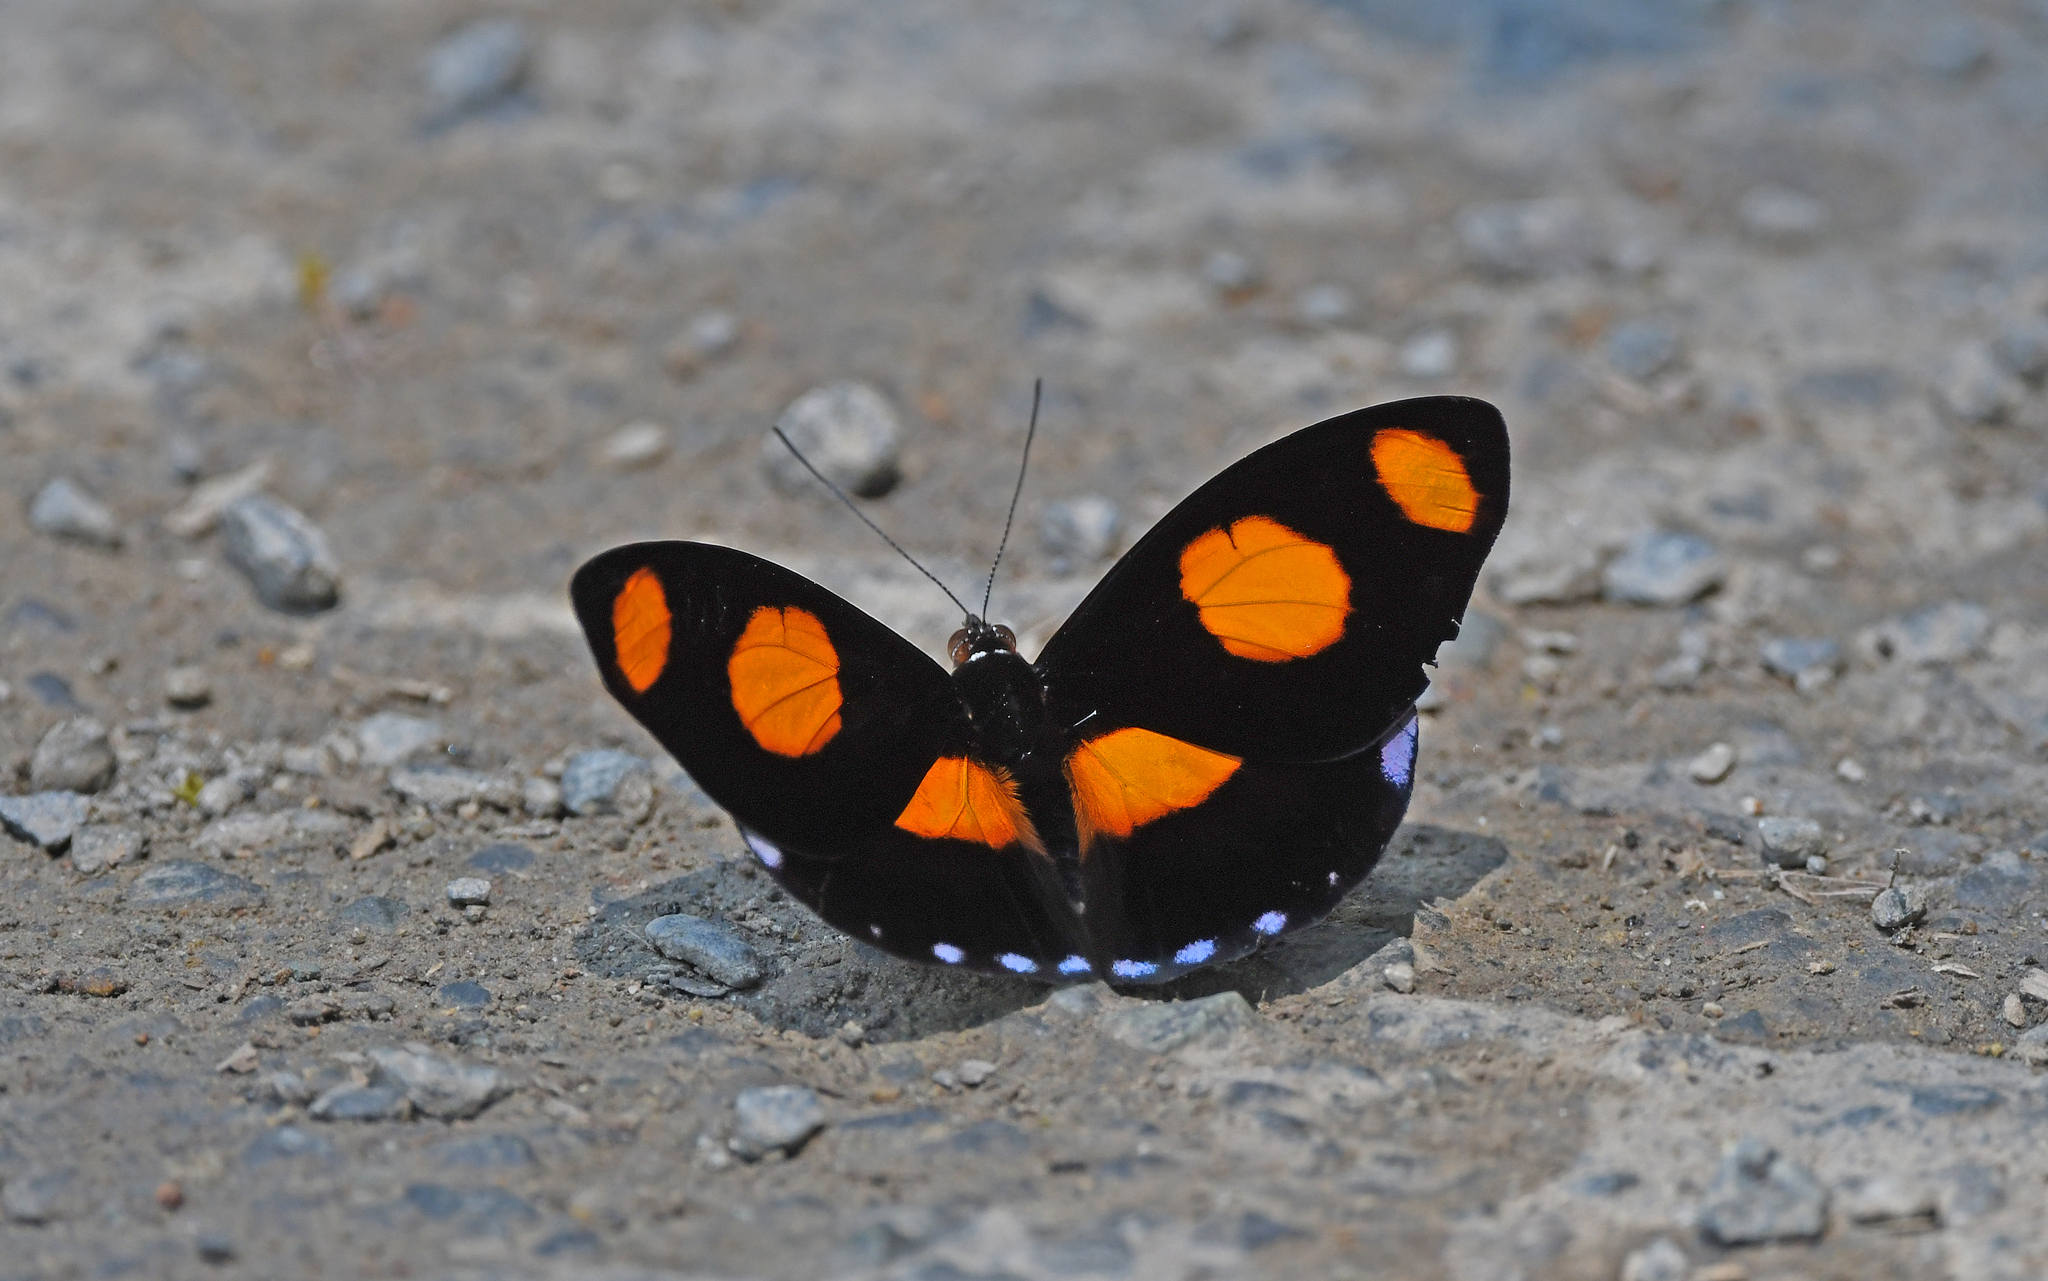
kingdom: Animalia
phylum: Arthropoda
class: Insecta
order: Lepidoptera
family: Nymphalidae
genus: Catonephele
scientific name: Catonephele numilia
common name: Blue-frosted banner
